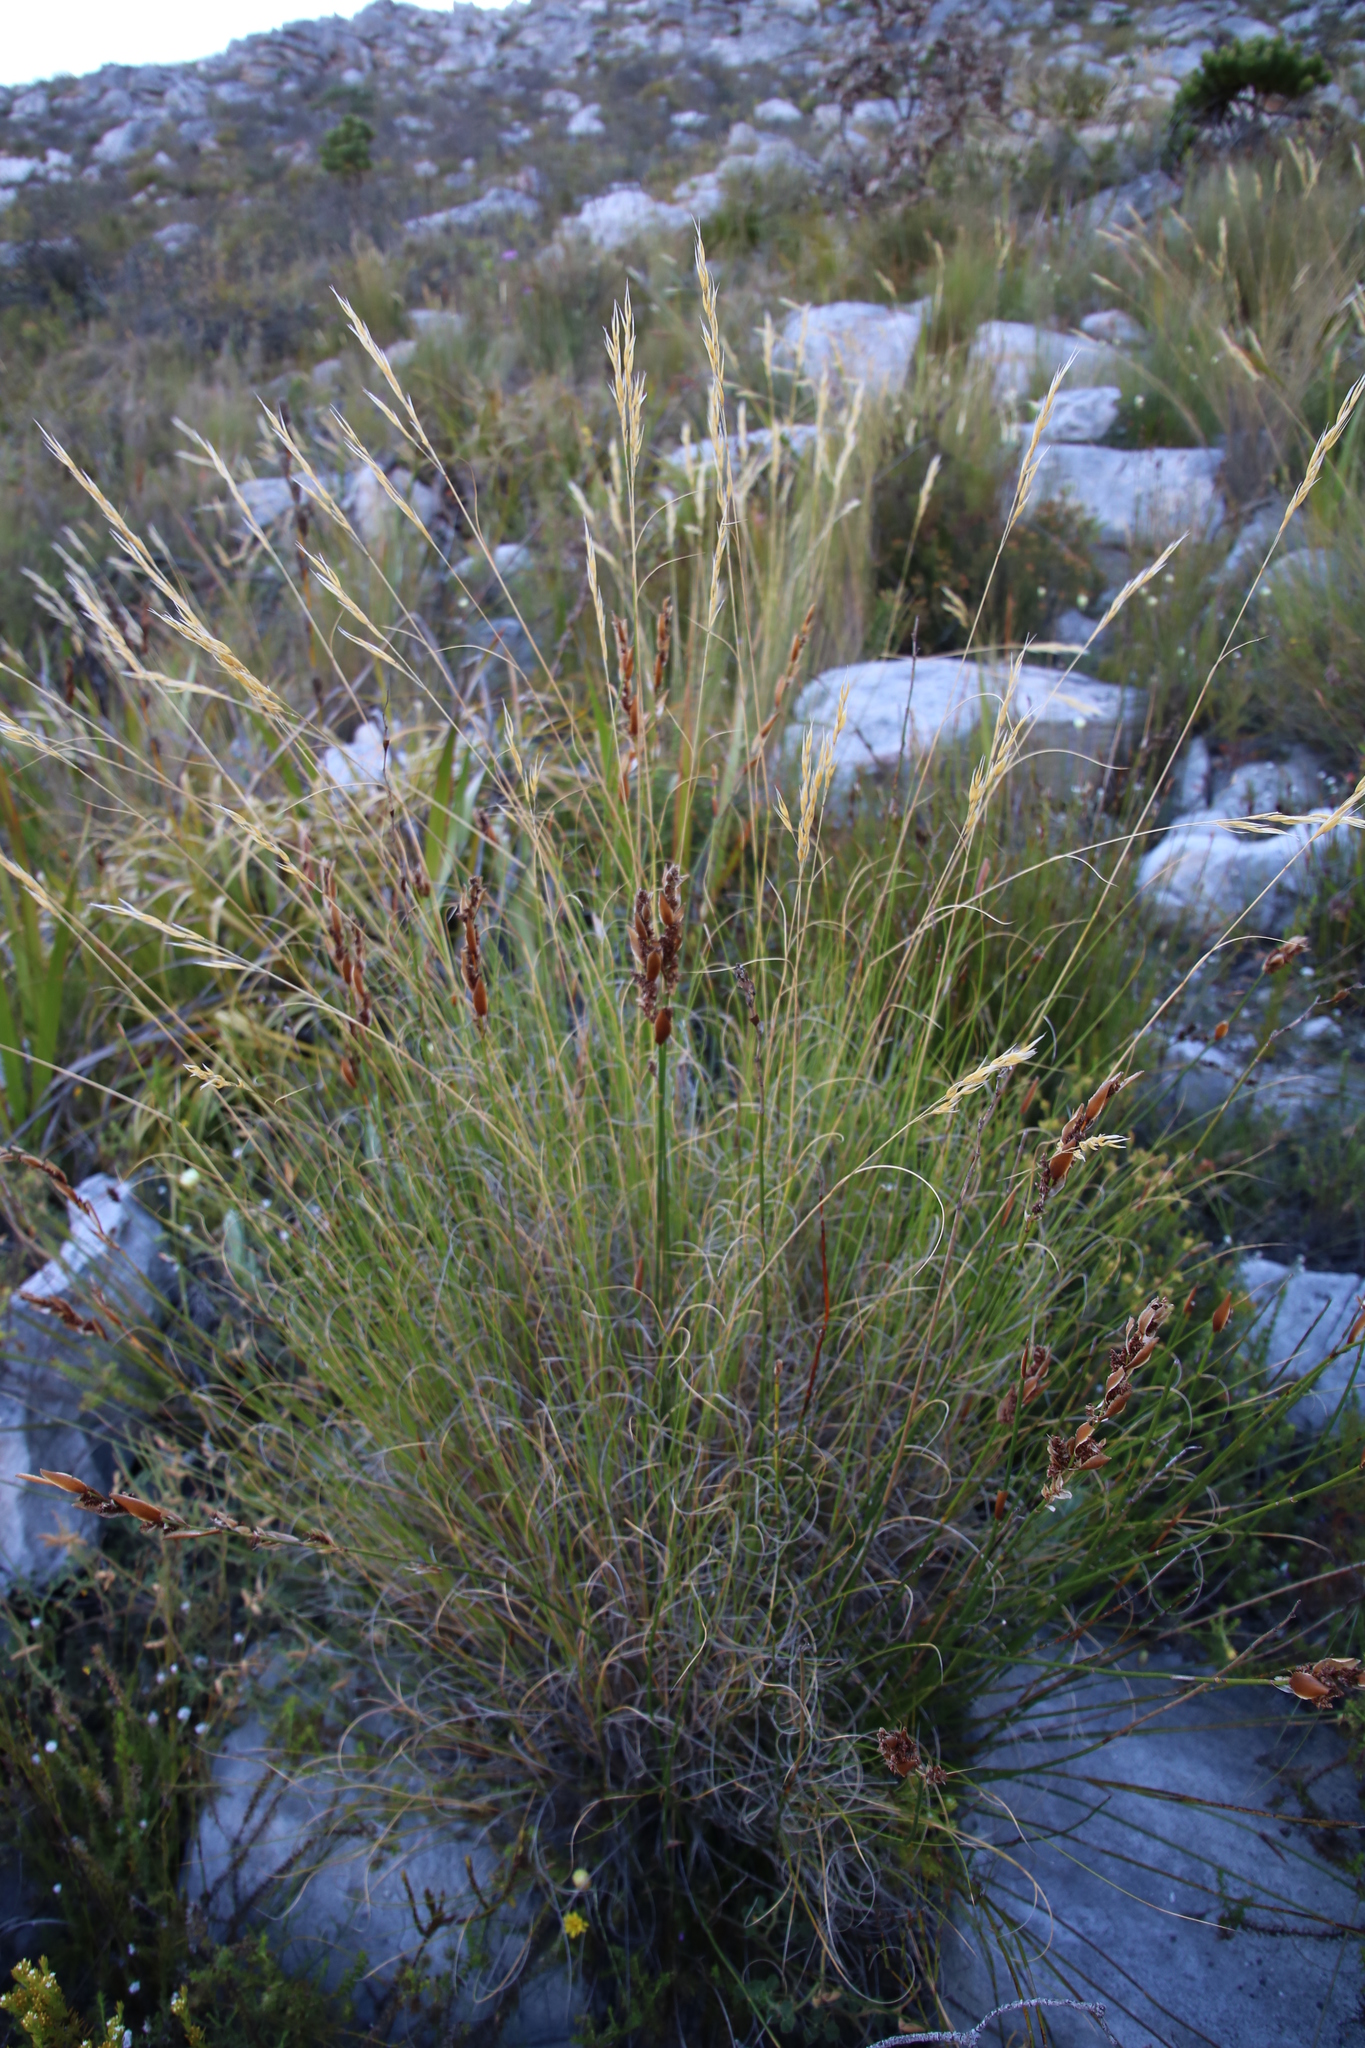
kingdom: Plantae
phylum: Tracheophyta
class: Liliopsida
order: Poales
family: Poaceae
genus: Pentameris
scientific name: Pentameris macrocalycina
